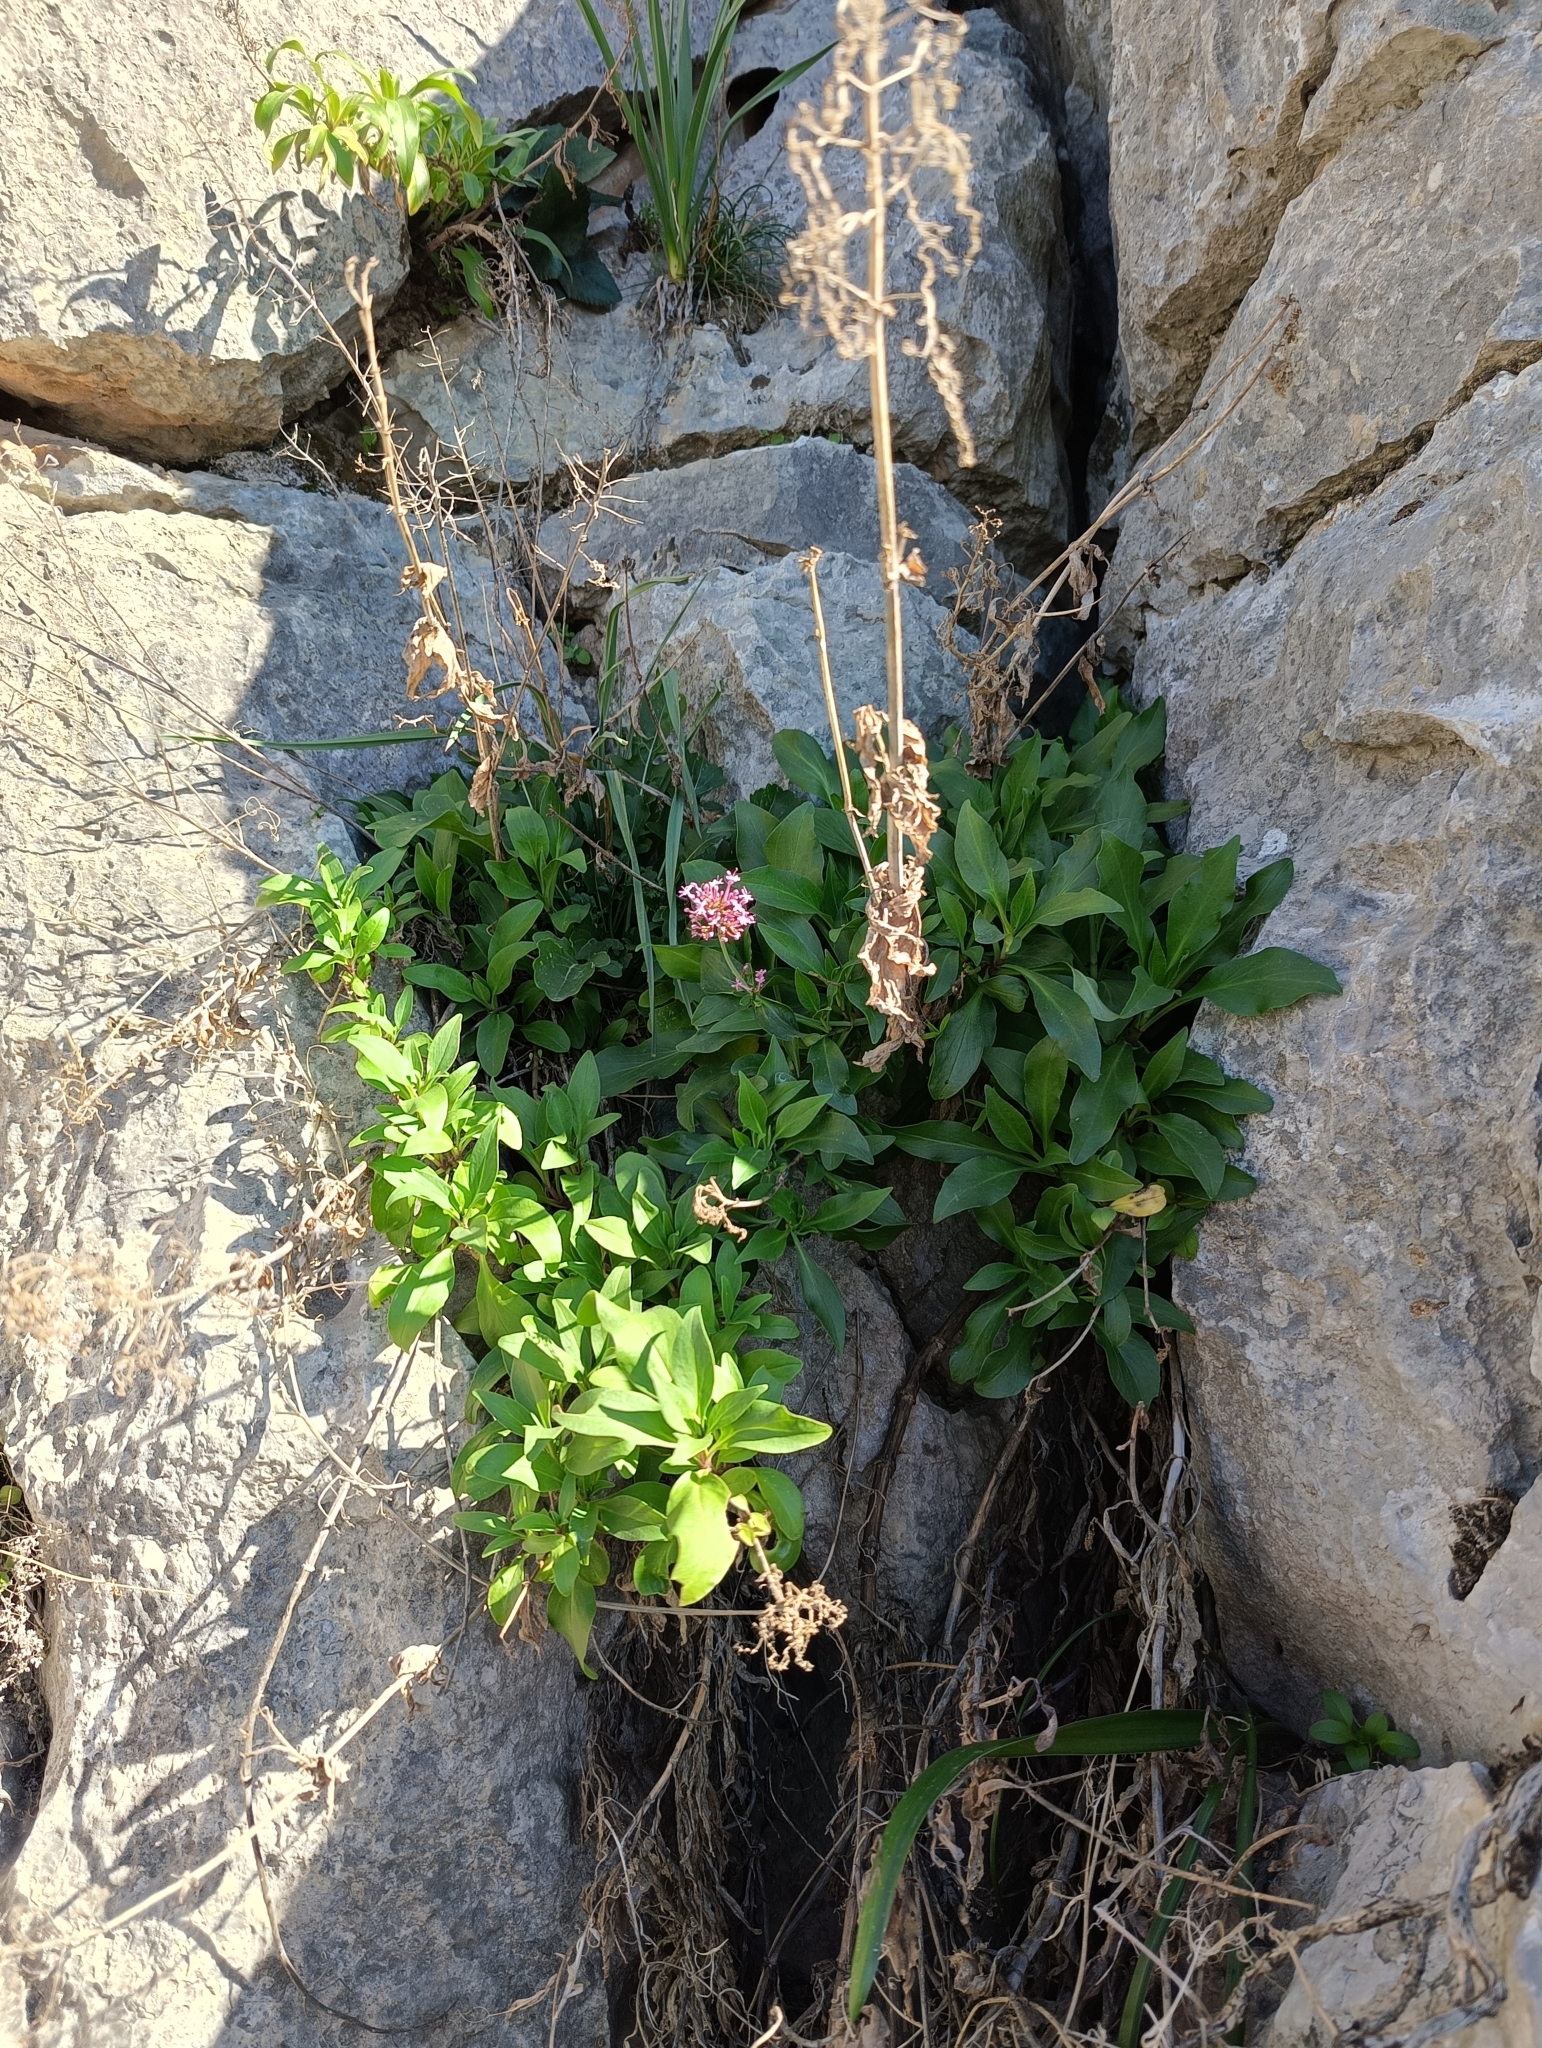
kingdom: Plantae
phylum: Tracheophyta
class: Magnoliopsida
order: Dipsacales
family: Caprifoliaceae
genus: Centranthus
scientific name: Centranthus ruber
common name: Red valerian
